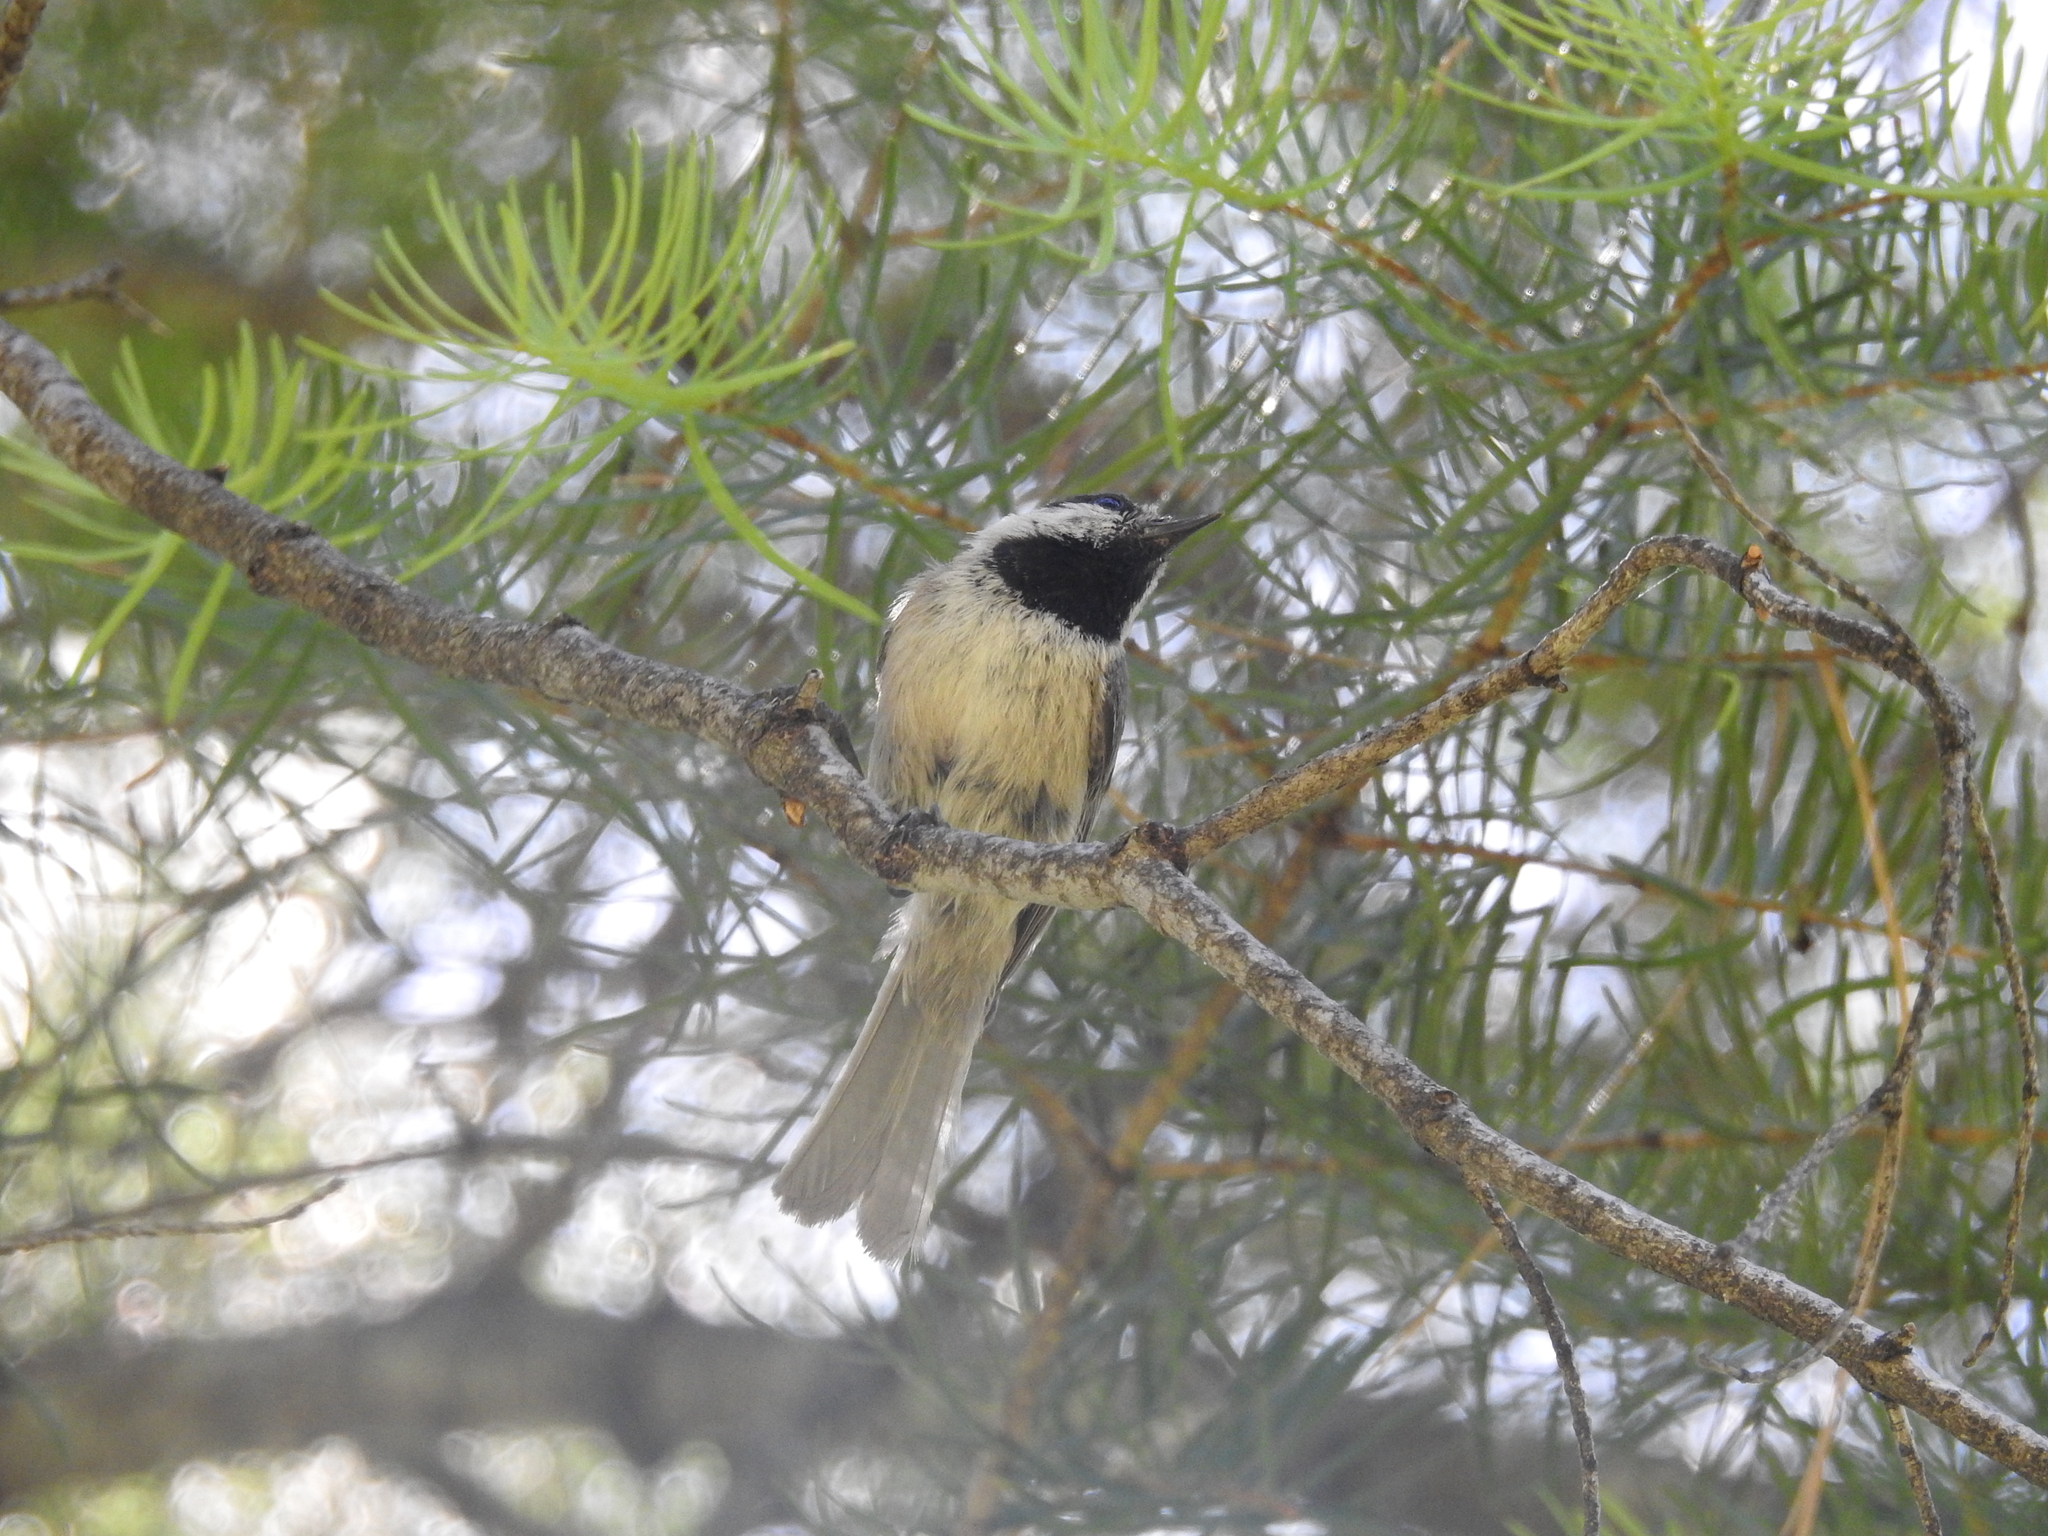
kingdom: Animalia
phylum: Chordata
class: Aves
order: Passeriformes
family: Paridae
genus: Poecile
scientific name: Poecile gambeli
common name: Mountain chickadee
